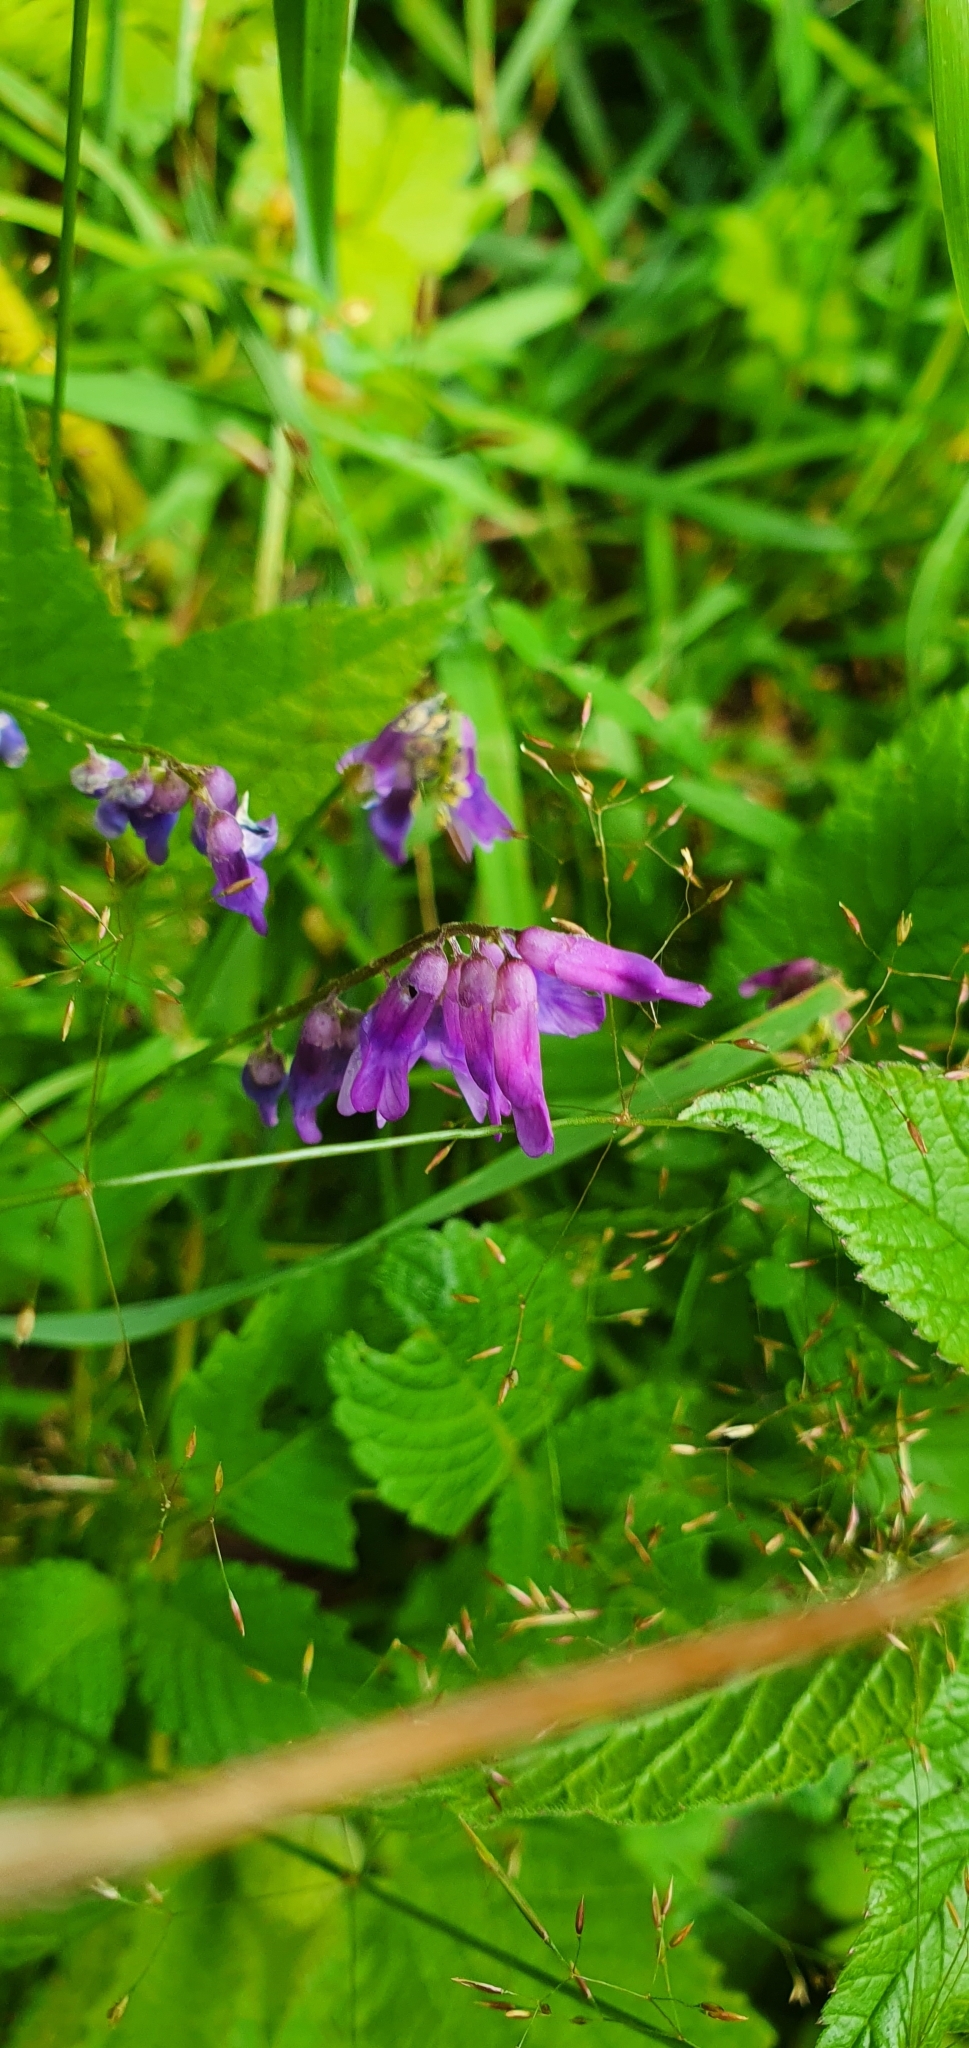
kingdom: Plantae
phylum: Tracheophyta
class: Magnoliopsida
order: Fabales
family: Fabaceae
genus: Vicia
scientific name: Vicia cracca
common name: Bird vetch
